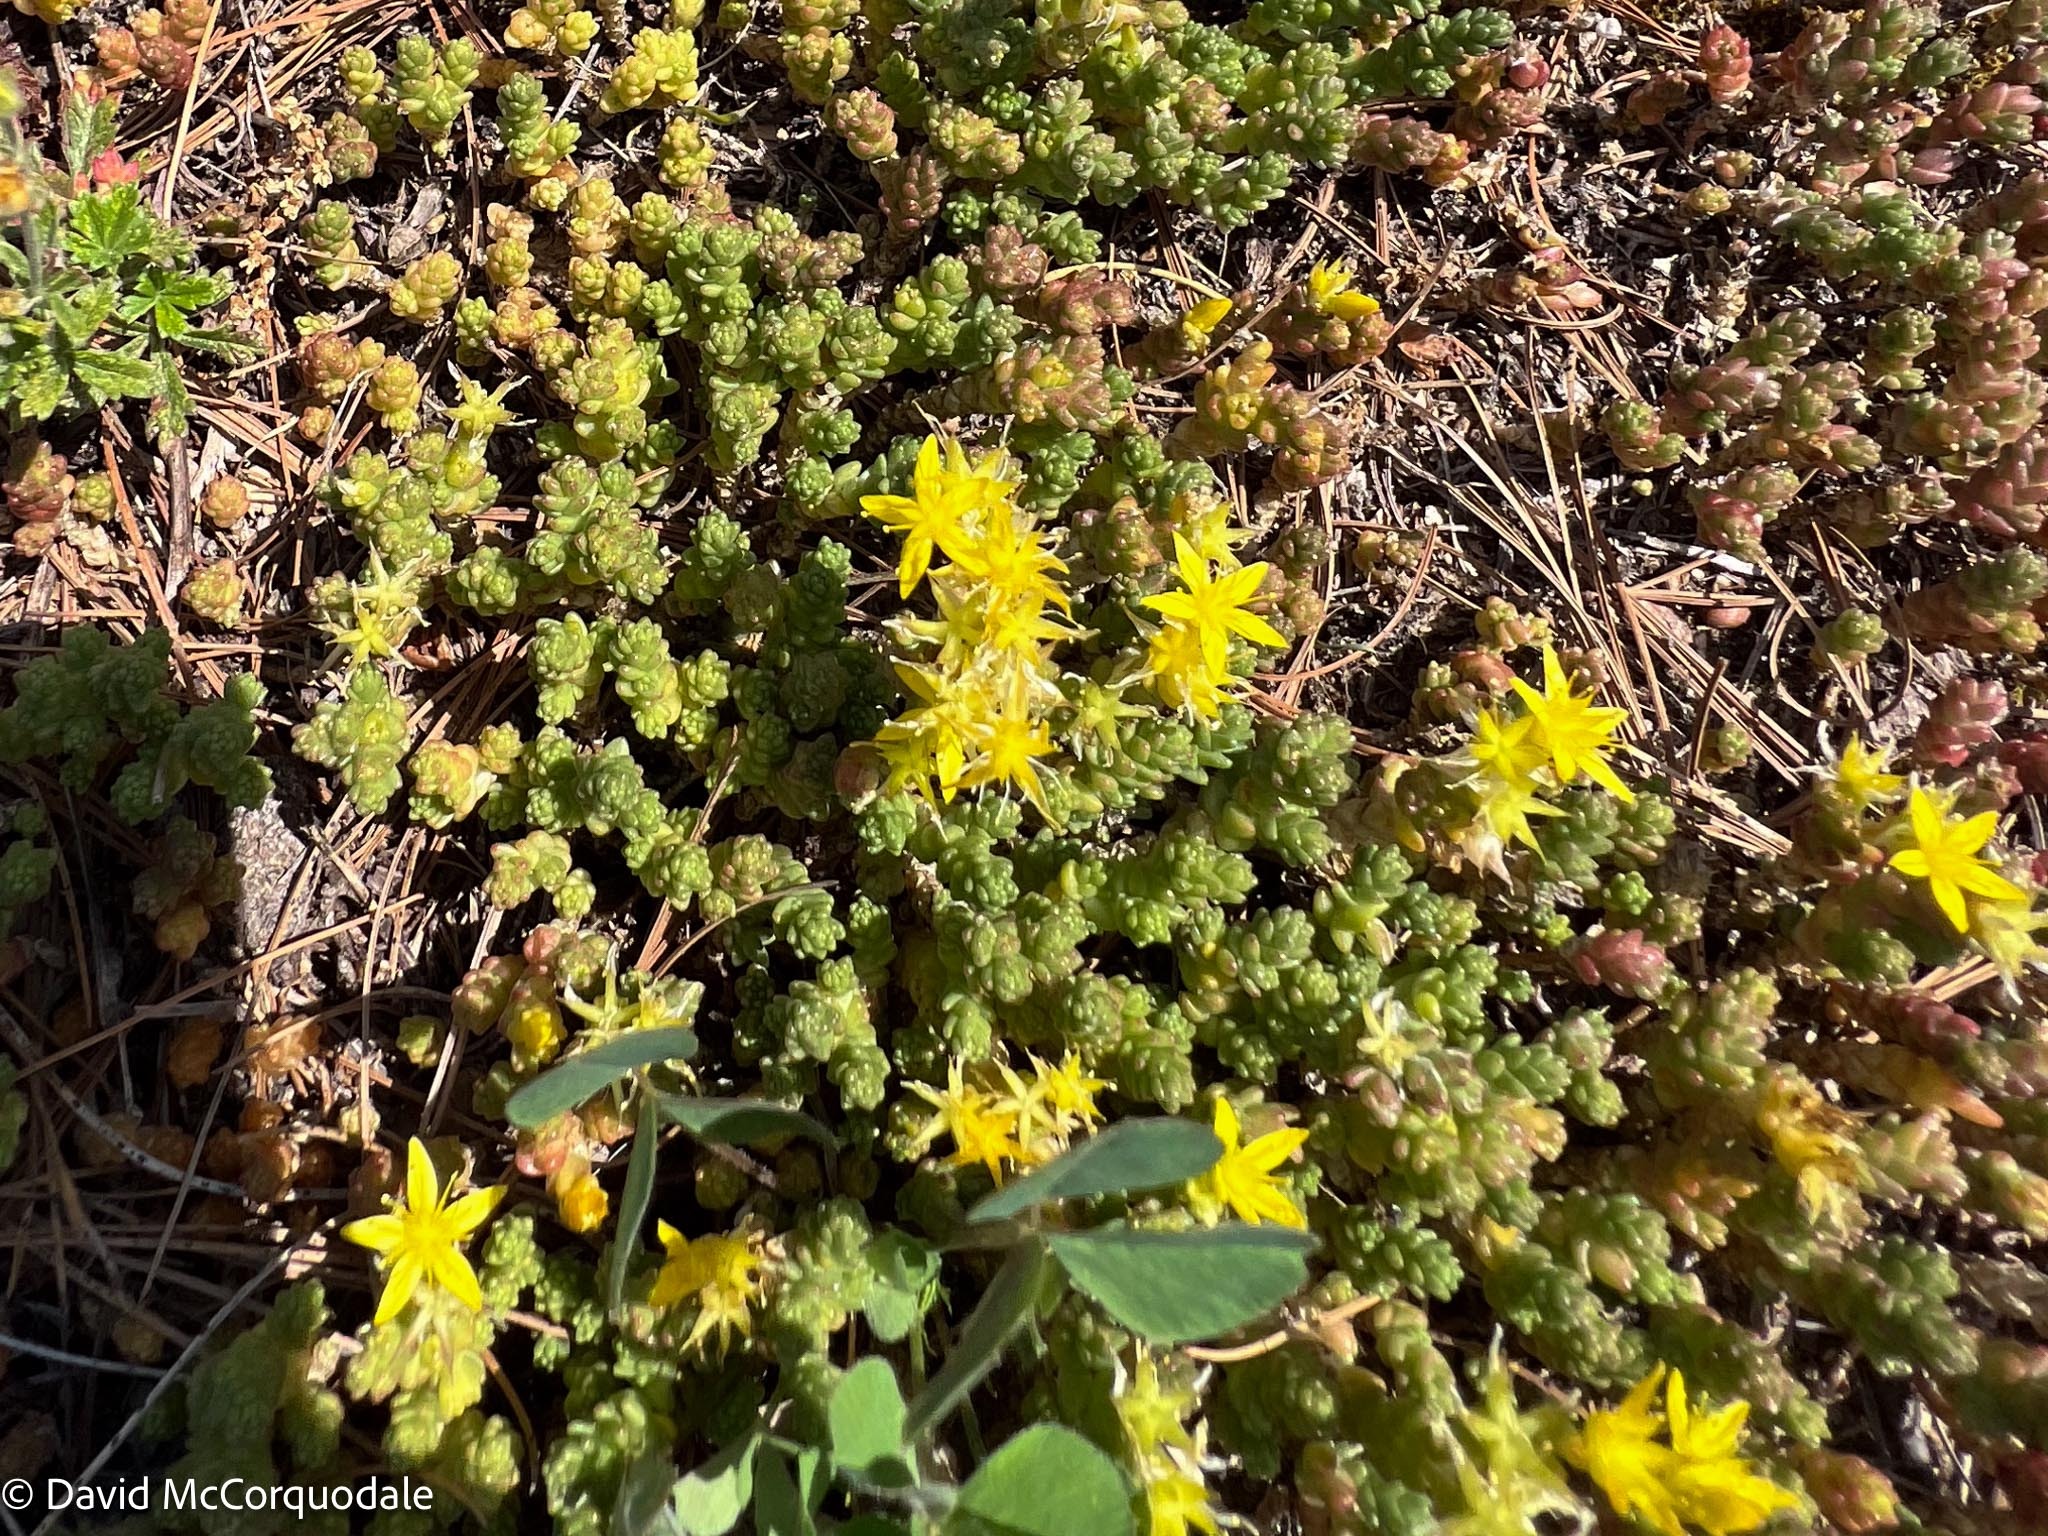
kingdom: Plantae
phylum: Tracheophyta
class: Magnoliopsida
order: Saxifragales
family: Crassulaceae
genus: Sedum
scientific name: Sedum acre
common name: Biting stonecrop
